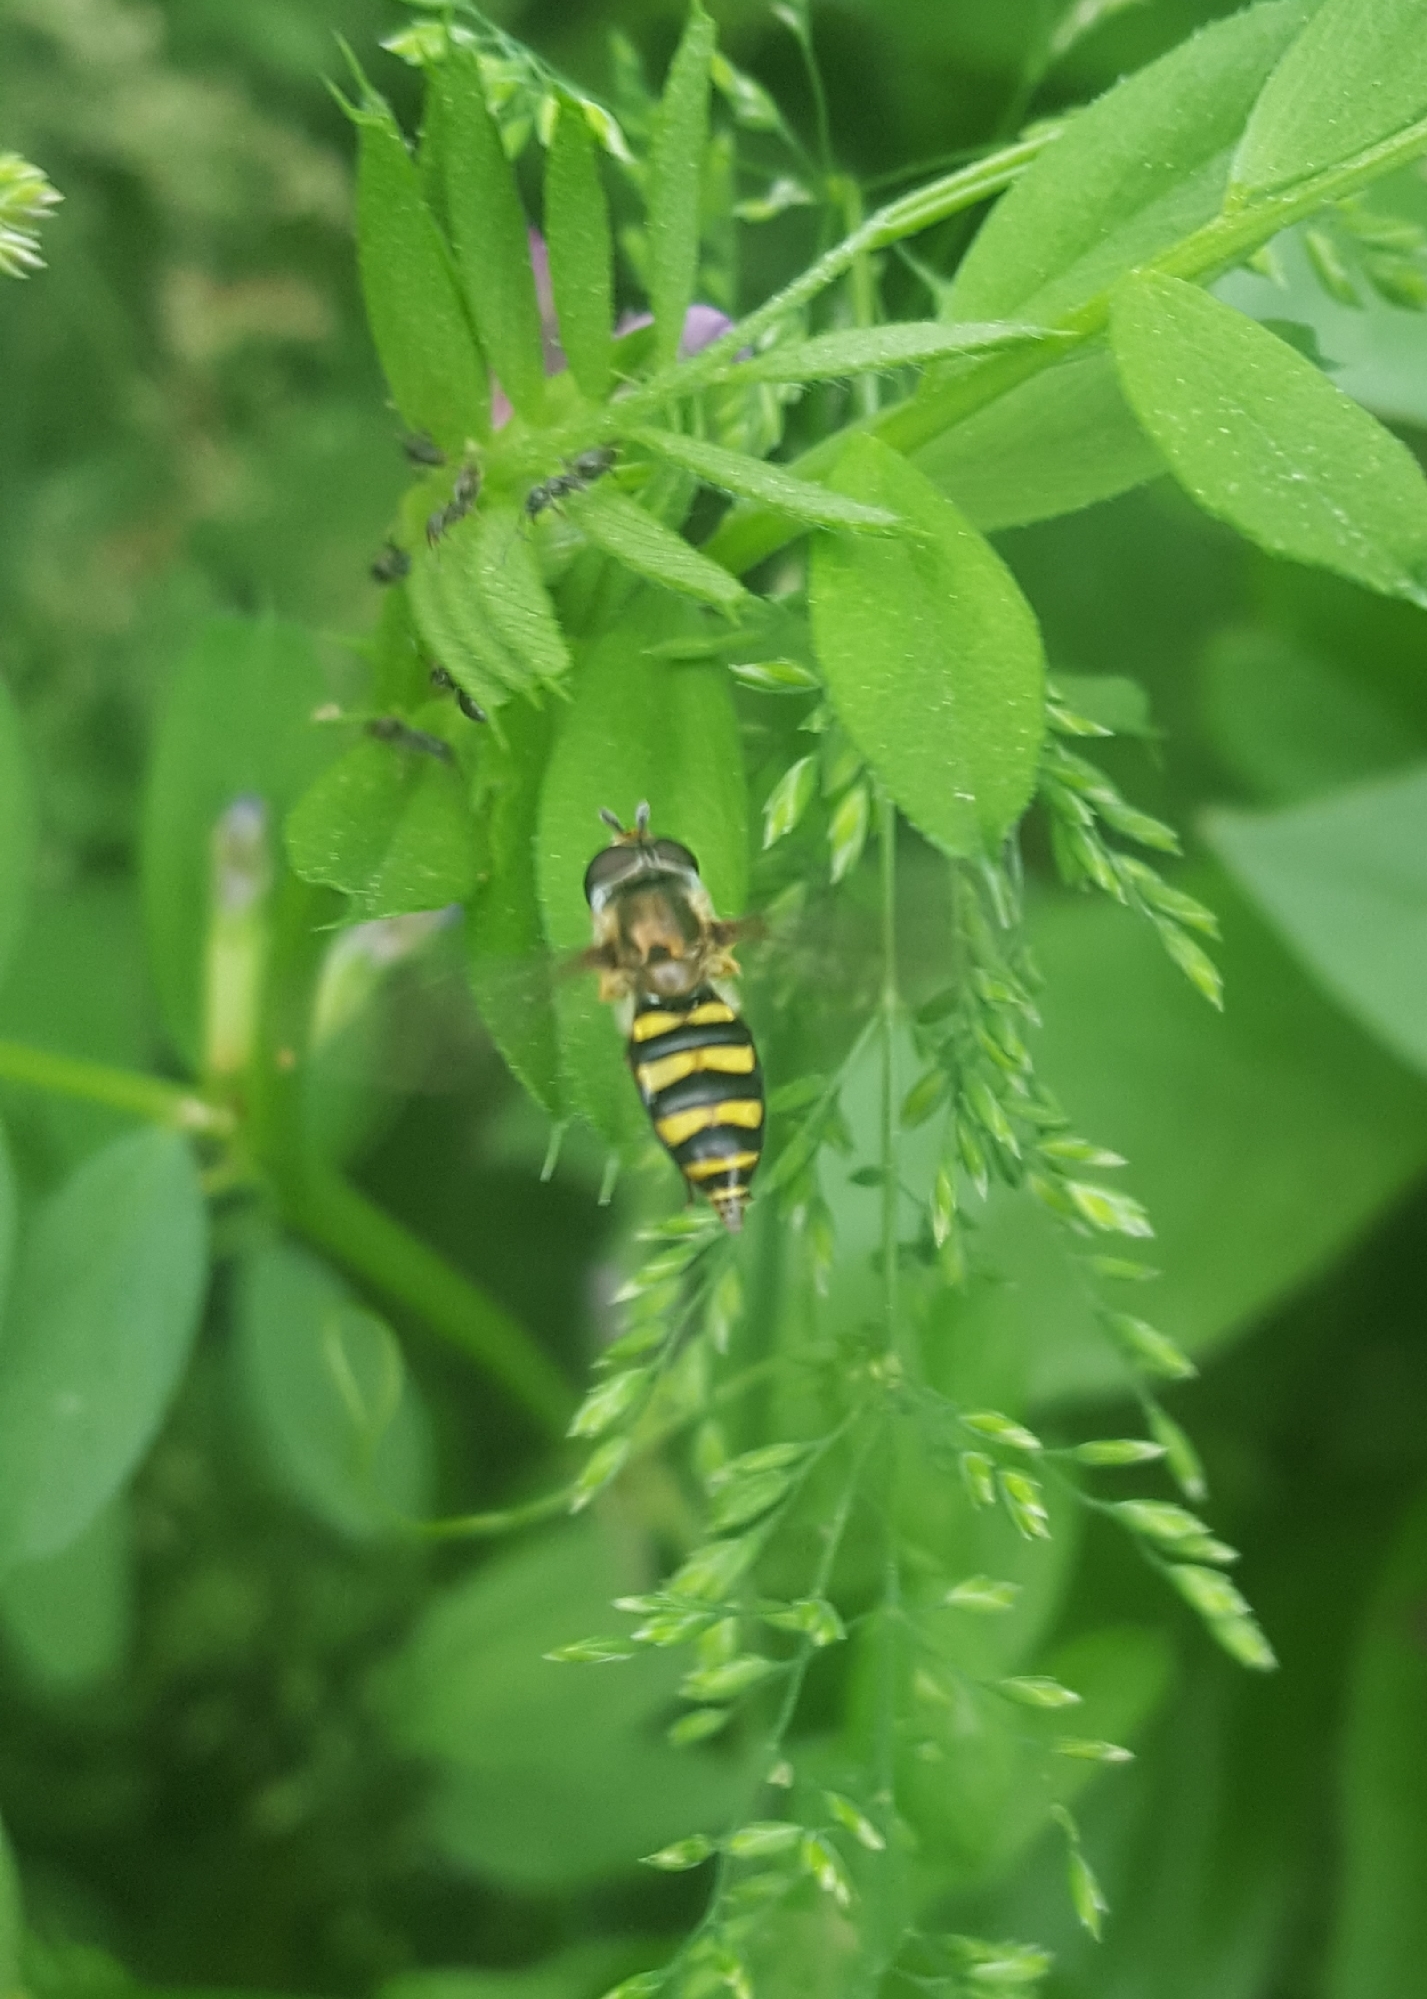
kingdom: Animalia
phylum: Arthropoda
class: Insecta
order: Diptera
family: Syrphidae
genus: Eupeodes
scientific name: Eupeodes
